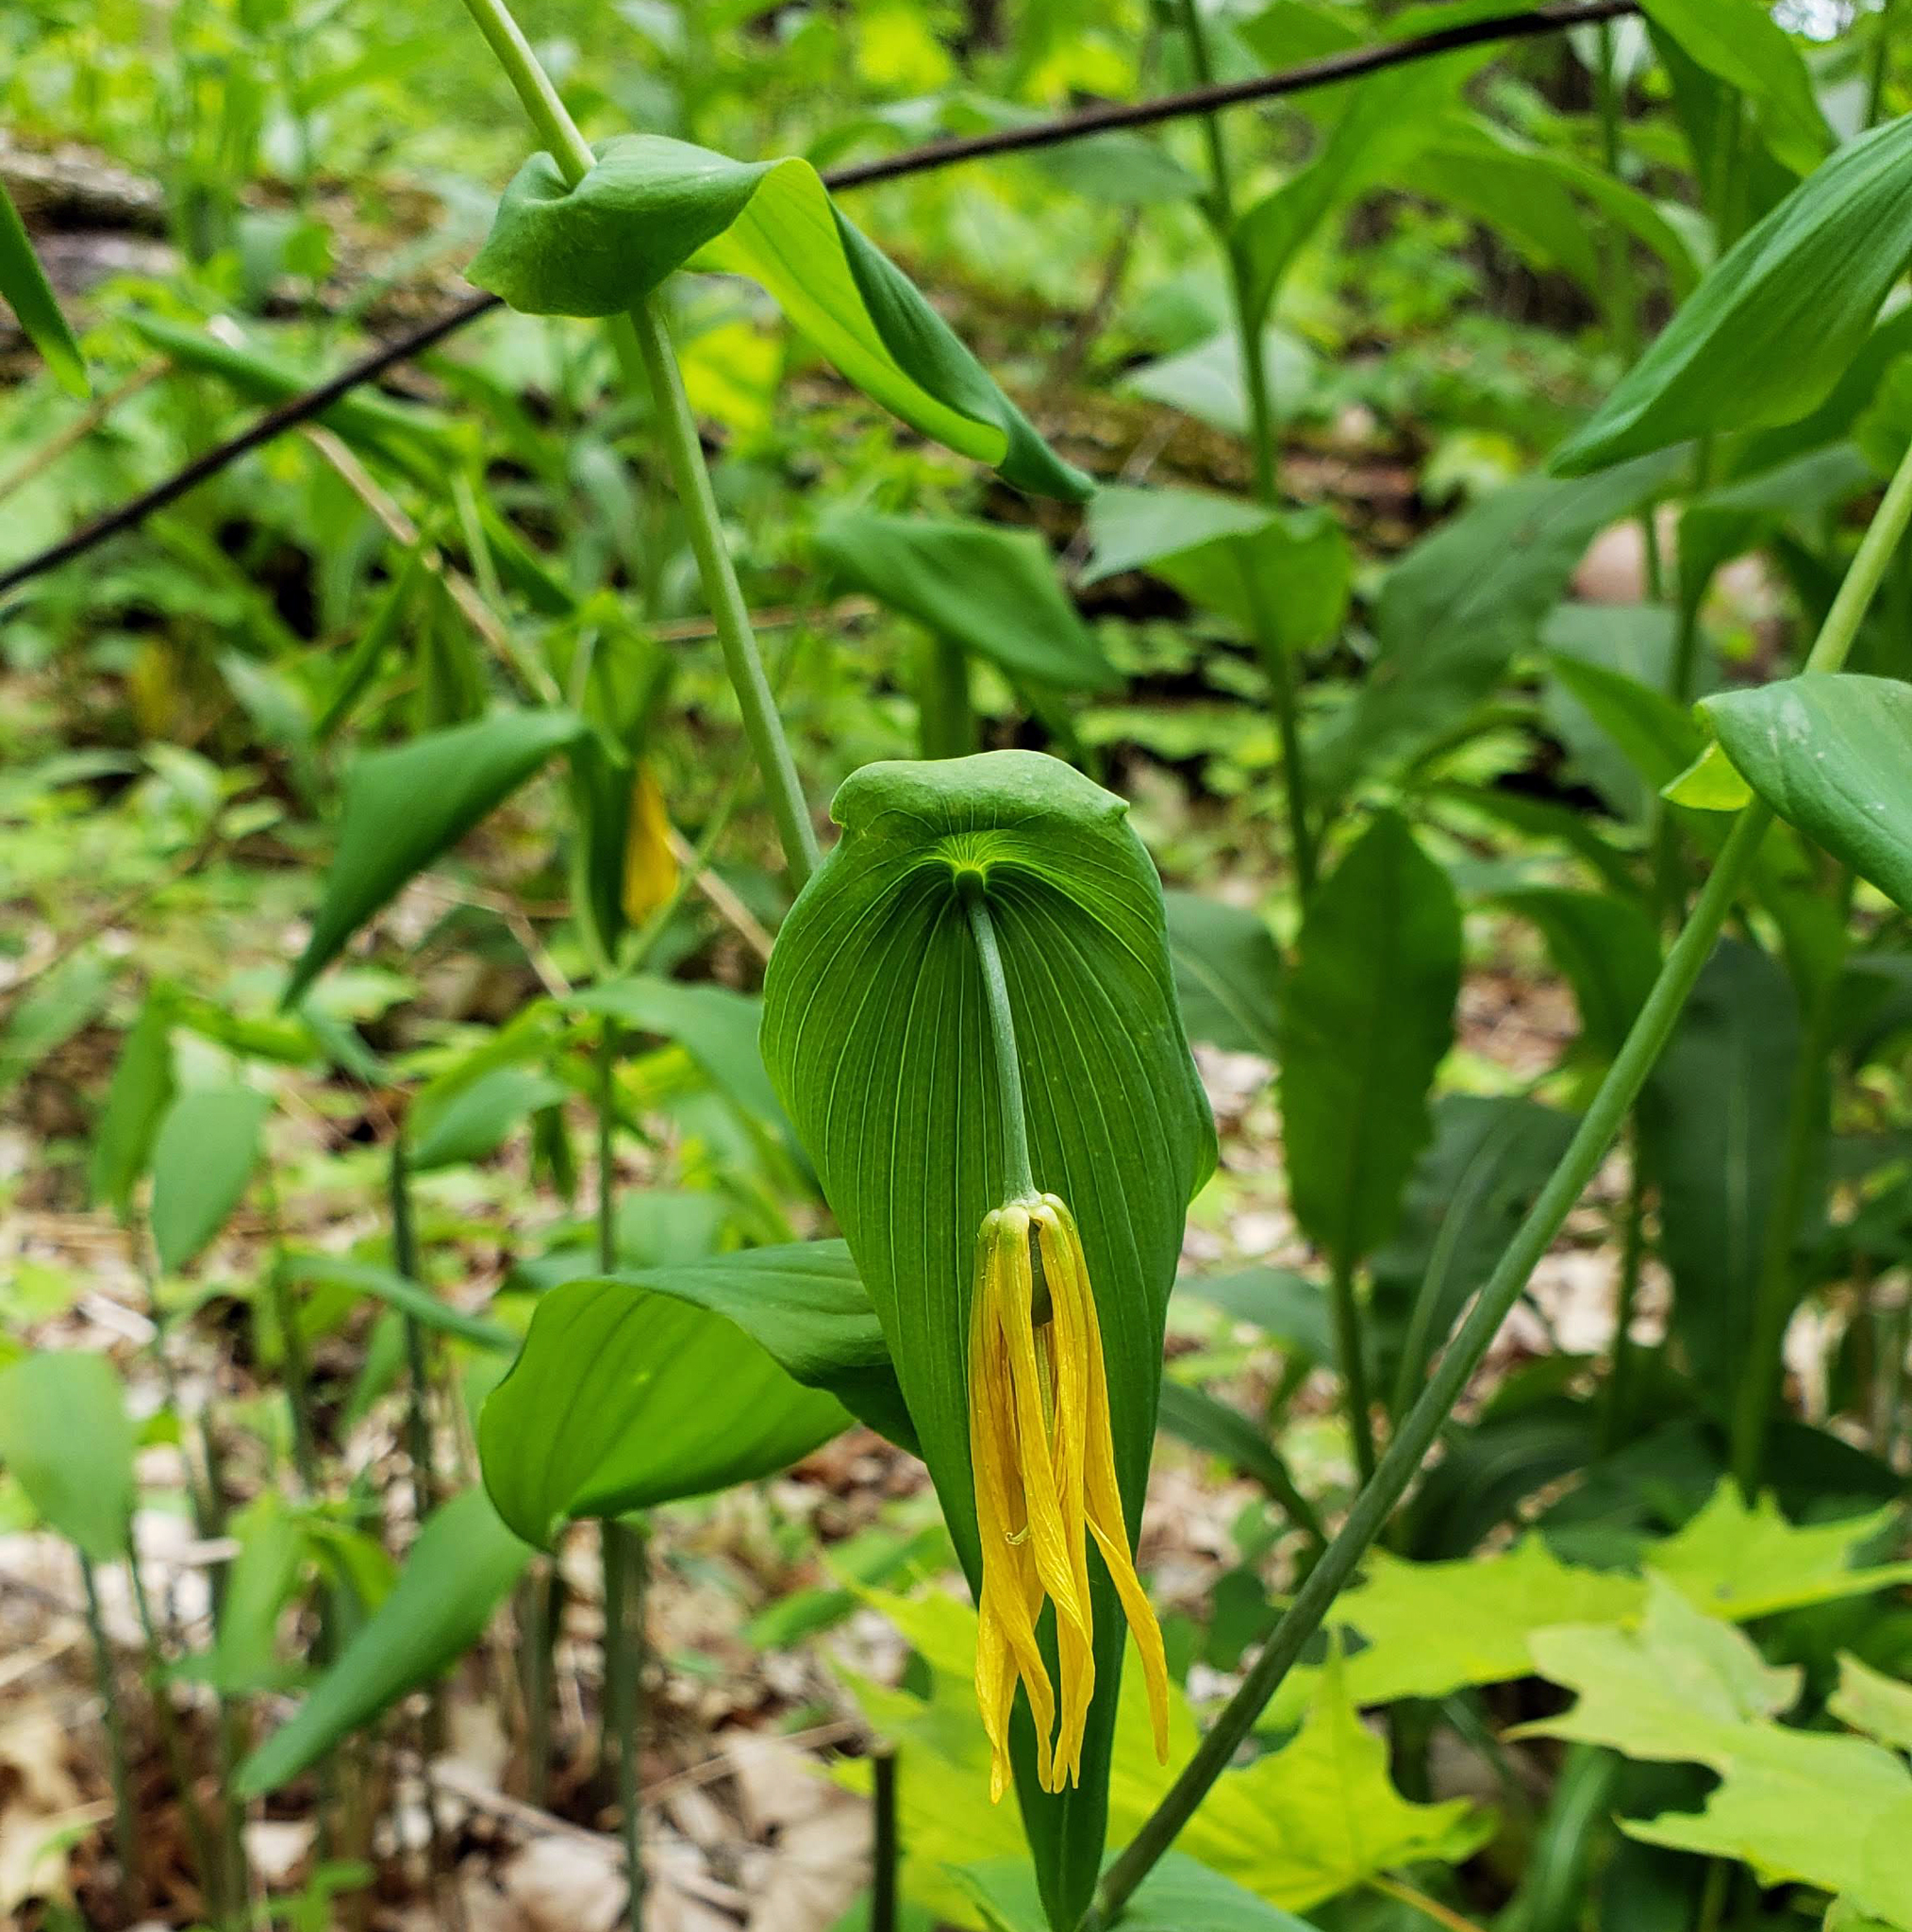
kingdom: Plantae
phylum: Tracheophyta
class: Liliopsida
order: Liliales
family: Colchicaceae
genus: Uvularia
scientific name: Uvularia grandiflora
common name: Bellwort
